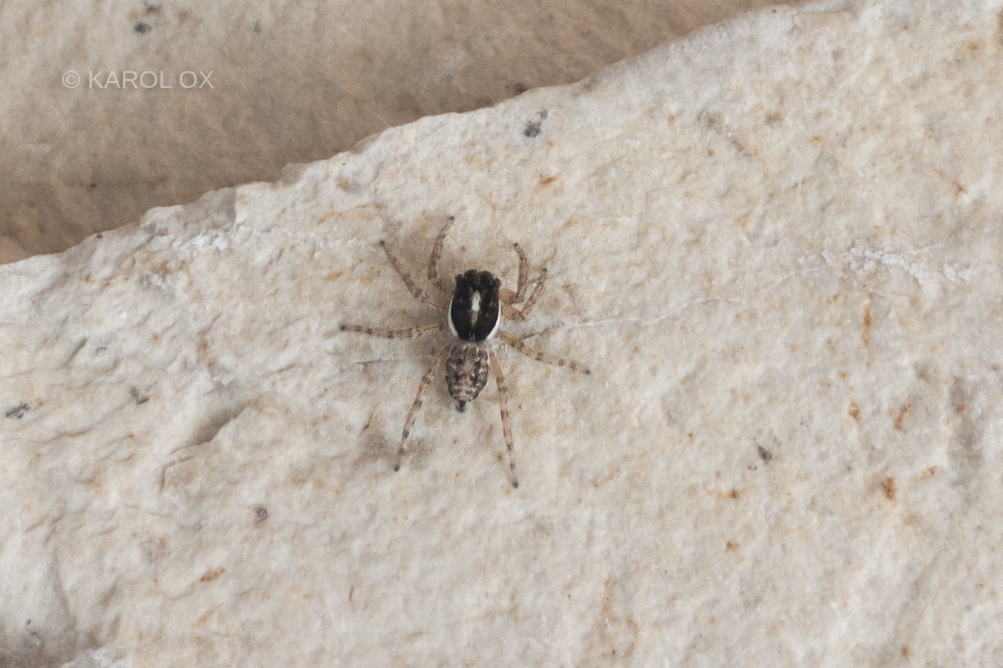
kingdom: Animalia
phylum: Arthropoda
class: Arachnida
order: Araneae
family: Salticidae
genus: Menemerus
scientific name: Menemerus semilimbatus
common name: Jumping spider
